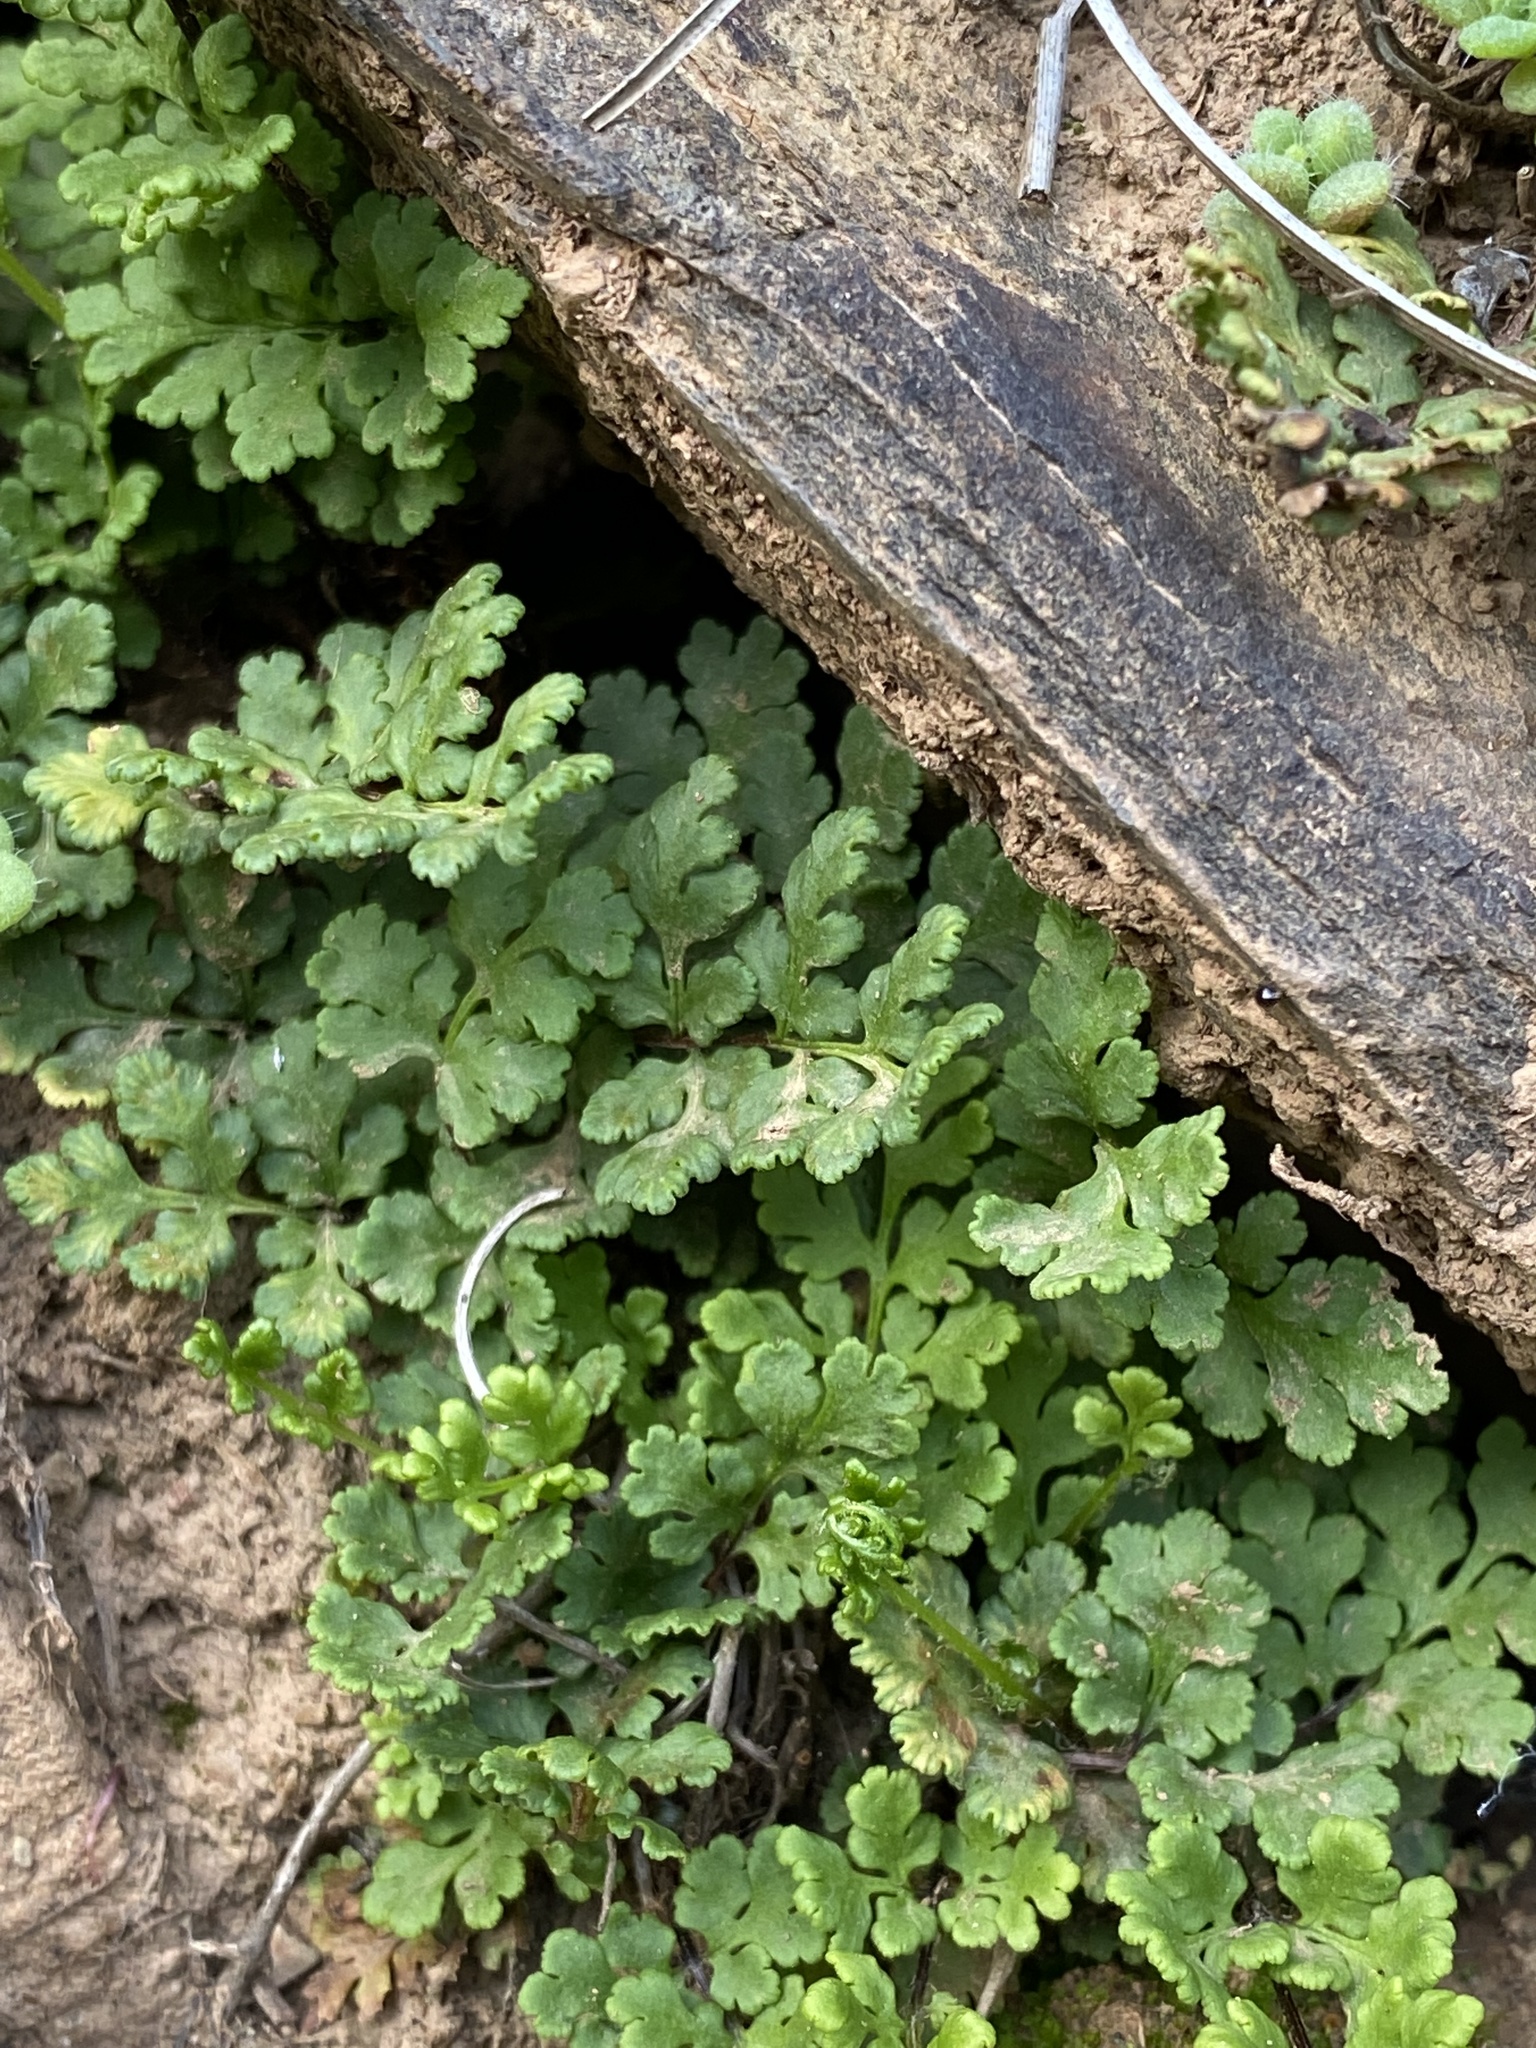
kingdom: Plantae
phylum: Tracheophyta
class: Polypodiopsida
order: Polypodiales
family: Pteridaceae
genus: Oeosporangium
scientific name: Oeosporangium pteridioides
